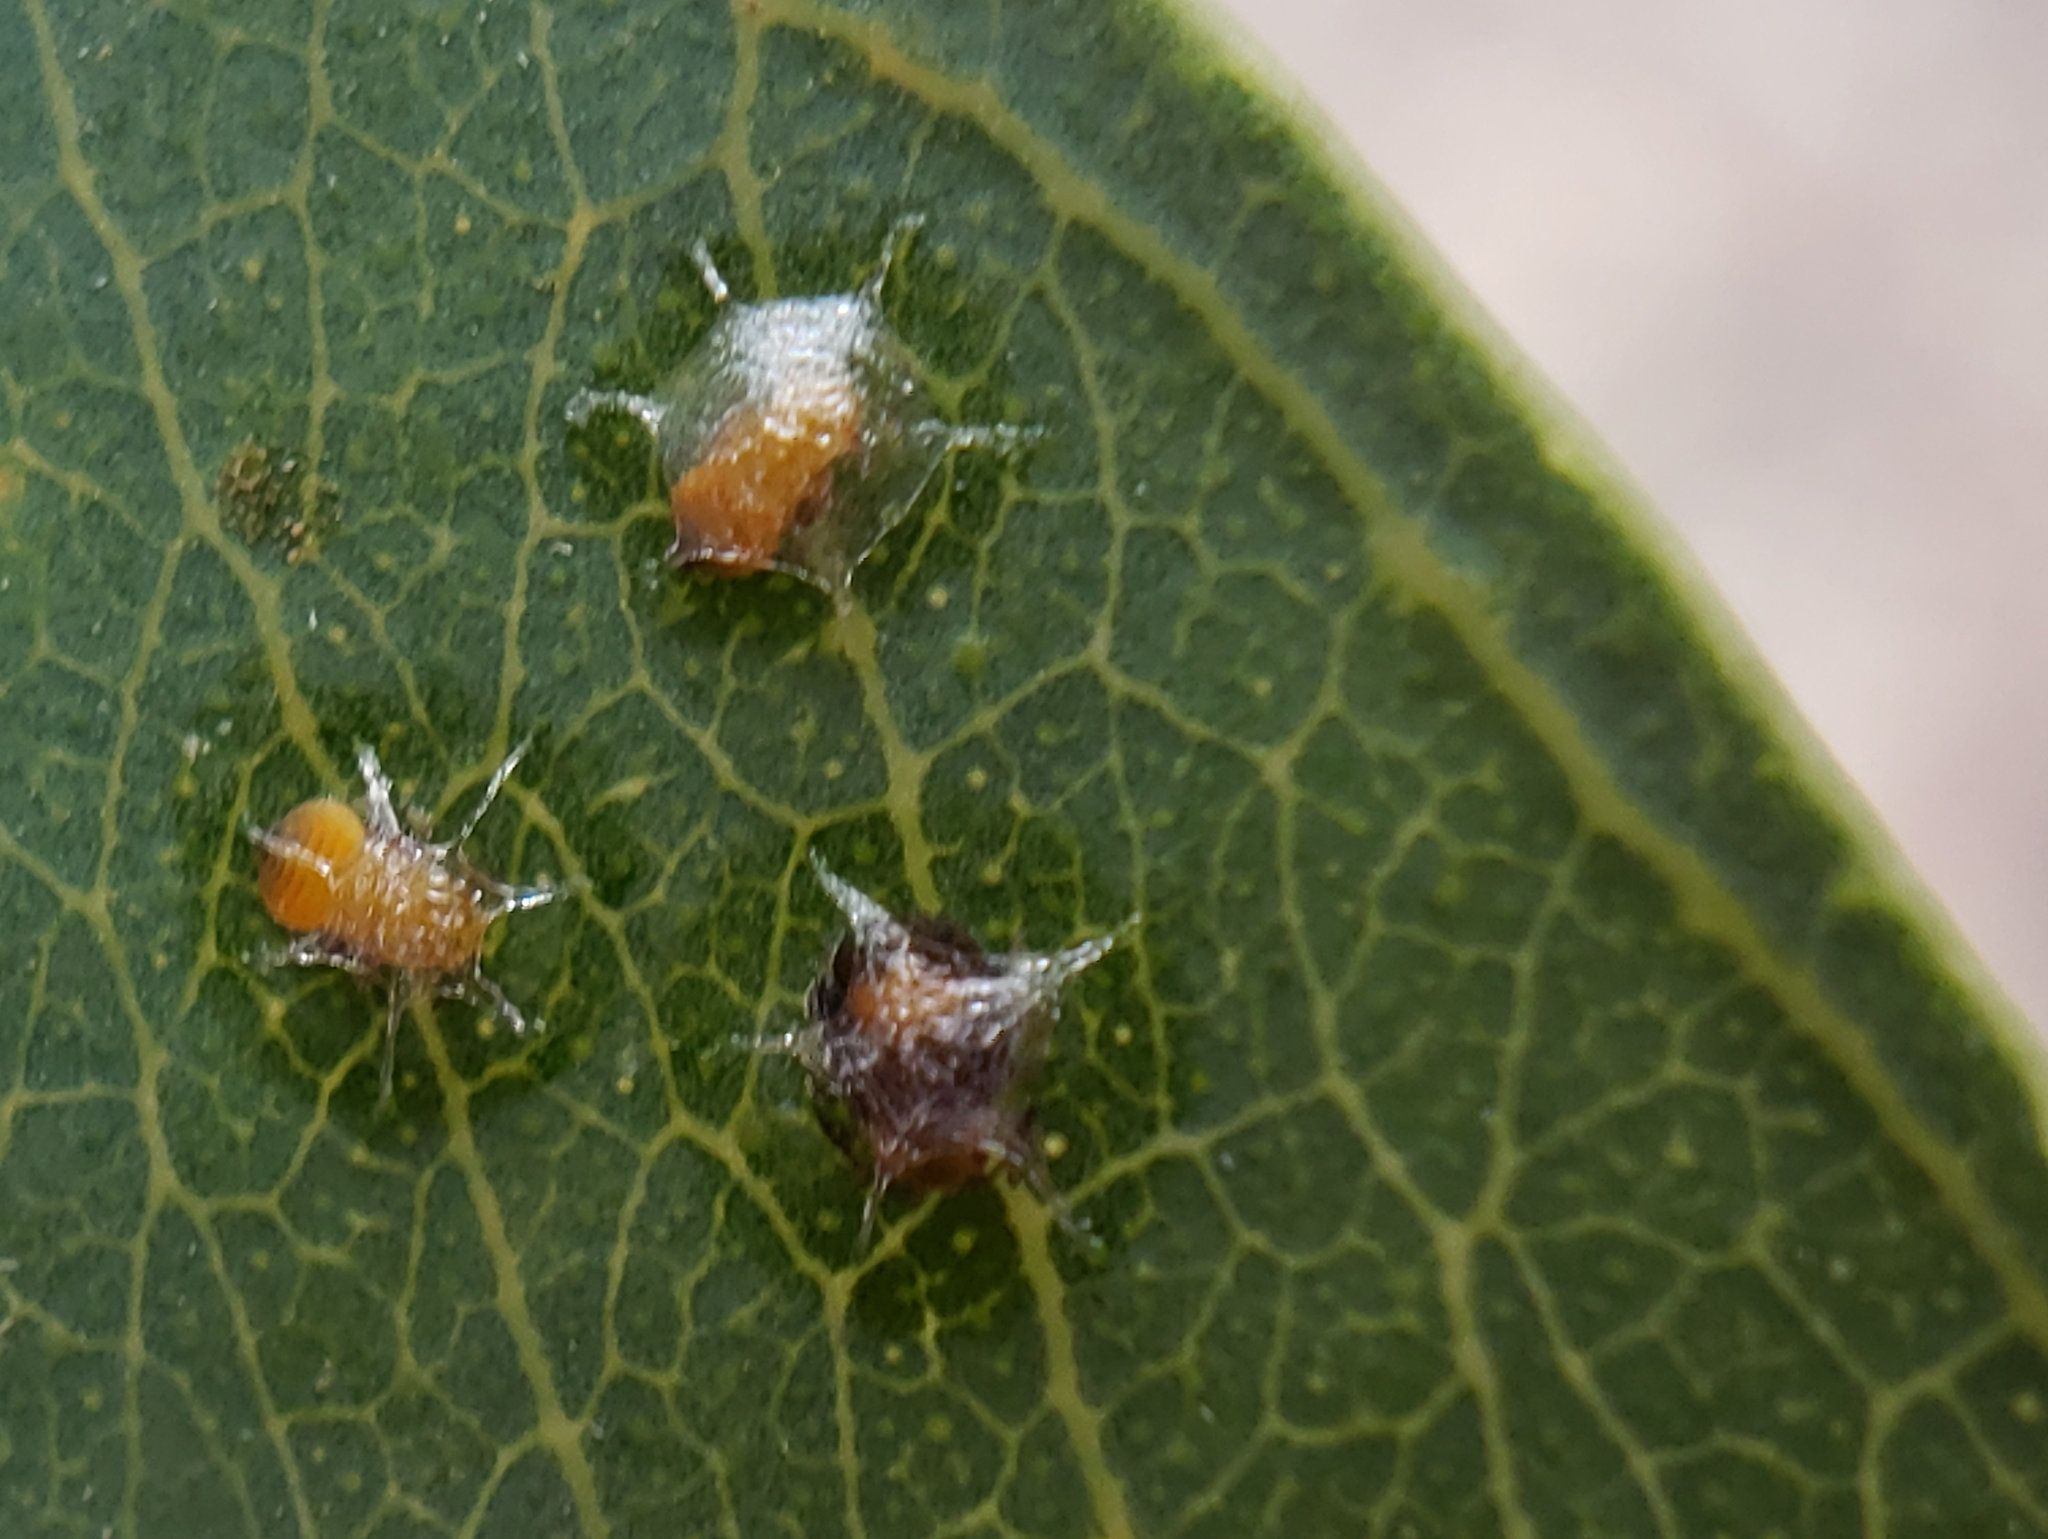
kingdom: Animalia
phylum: Arthropoda
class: Insecta
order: Hemiptera
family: Aphalaridae
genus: Glycaspis
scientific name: Glycaspis brimblecombei
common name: Red gum lerp psyllid
